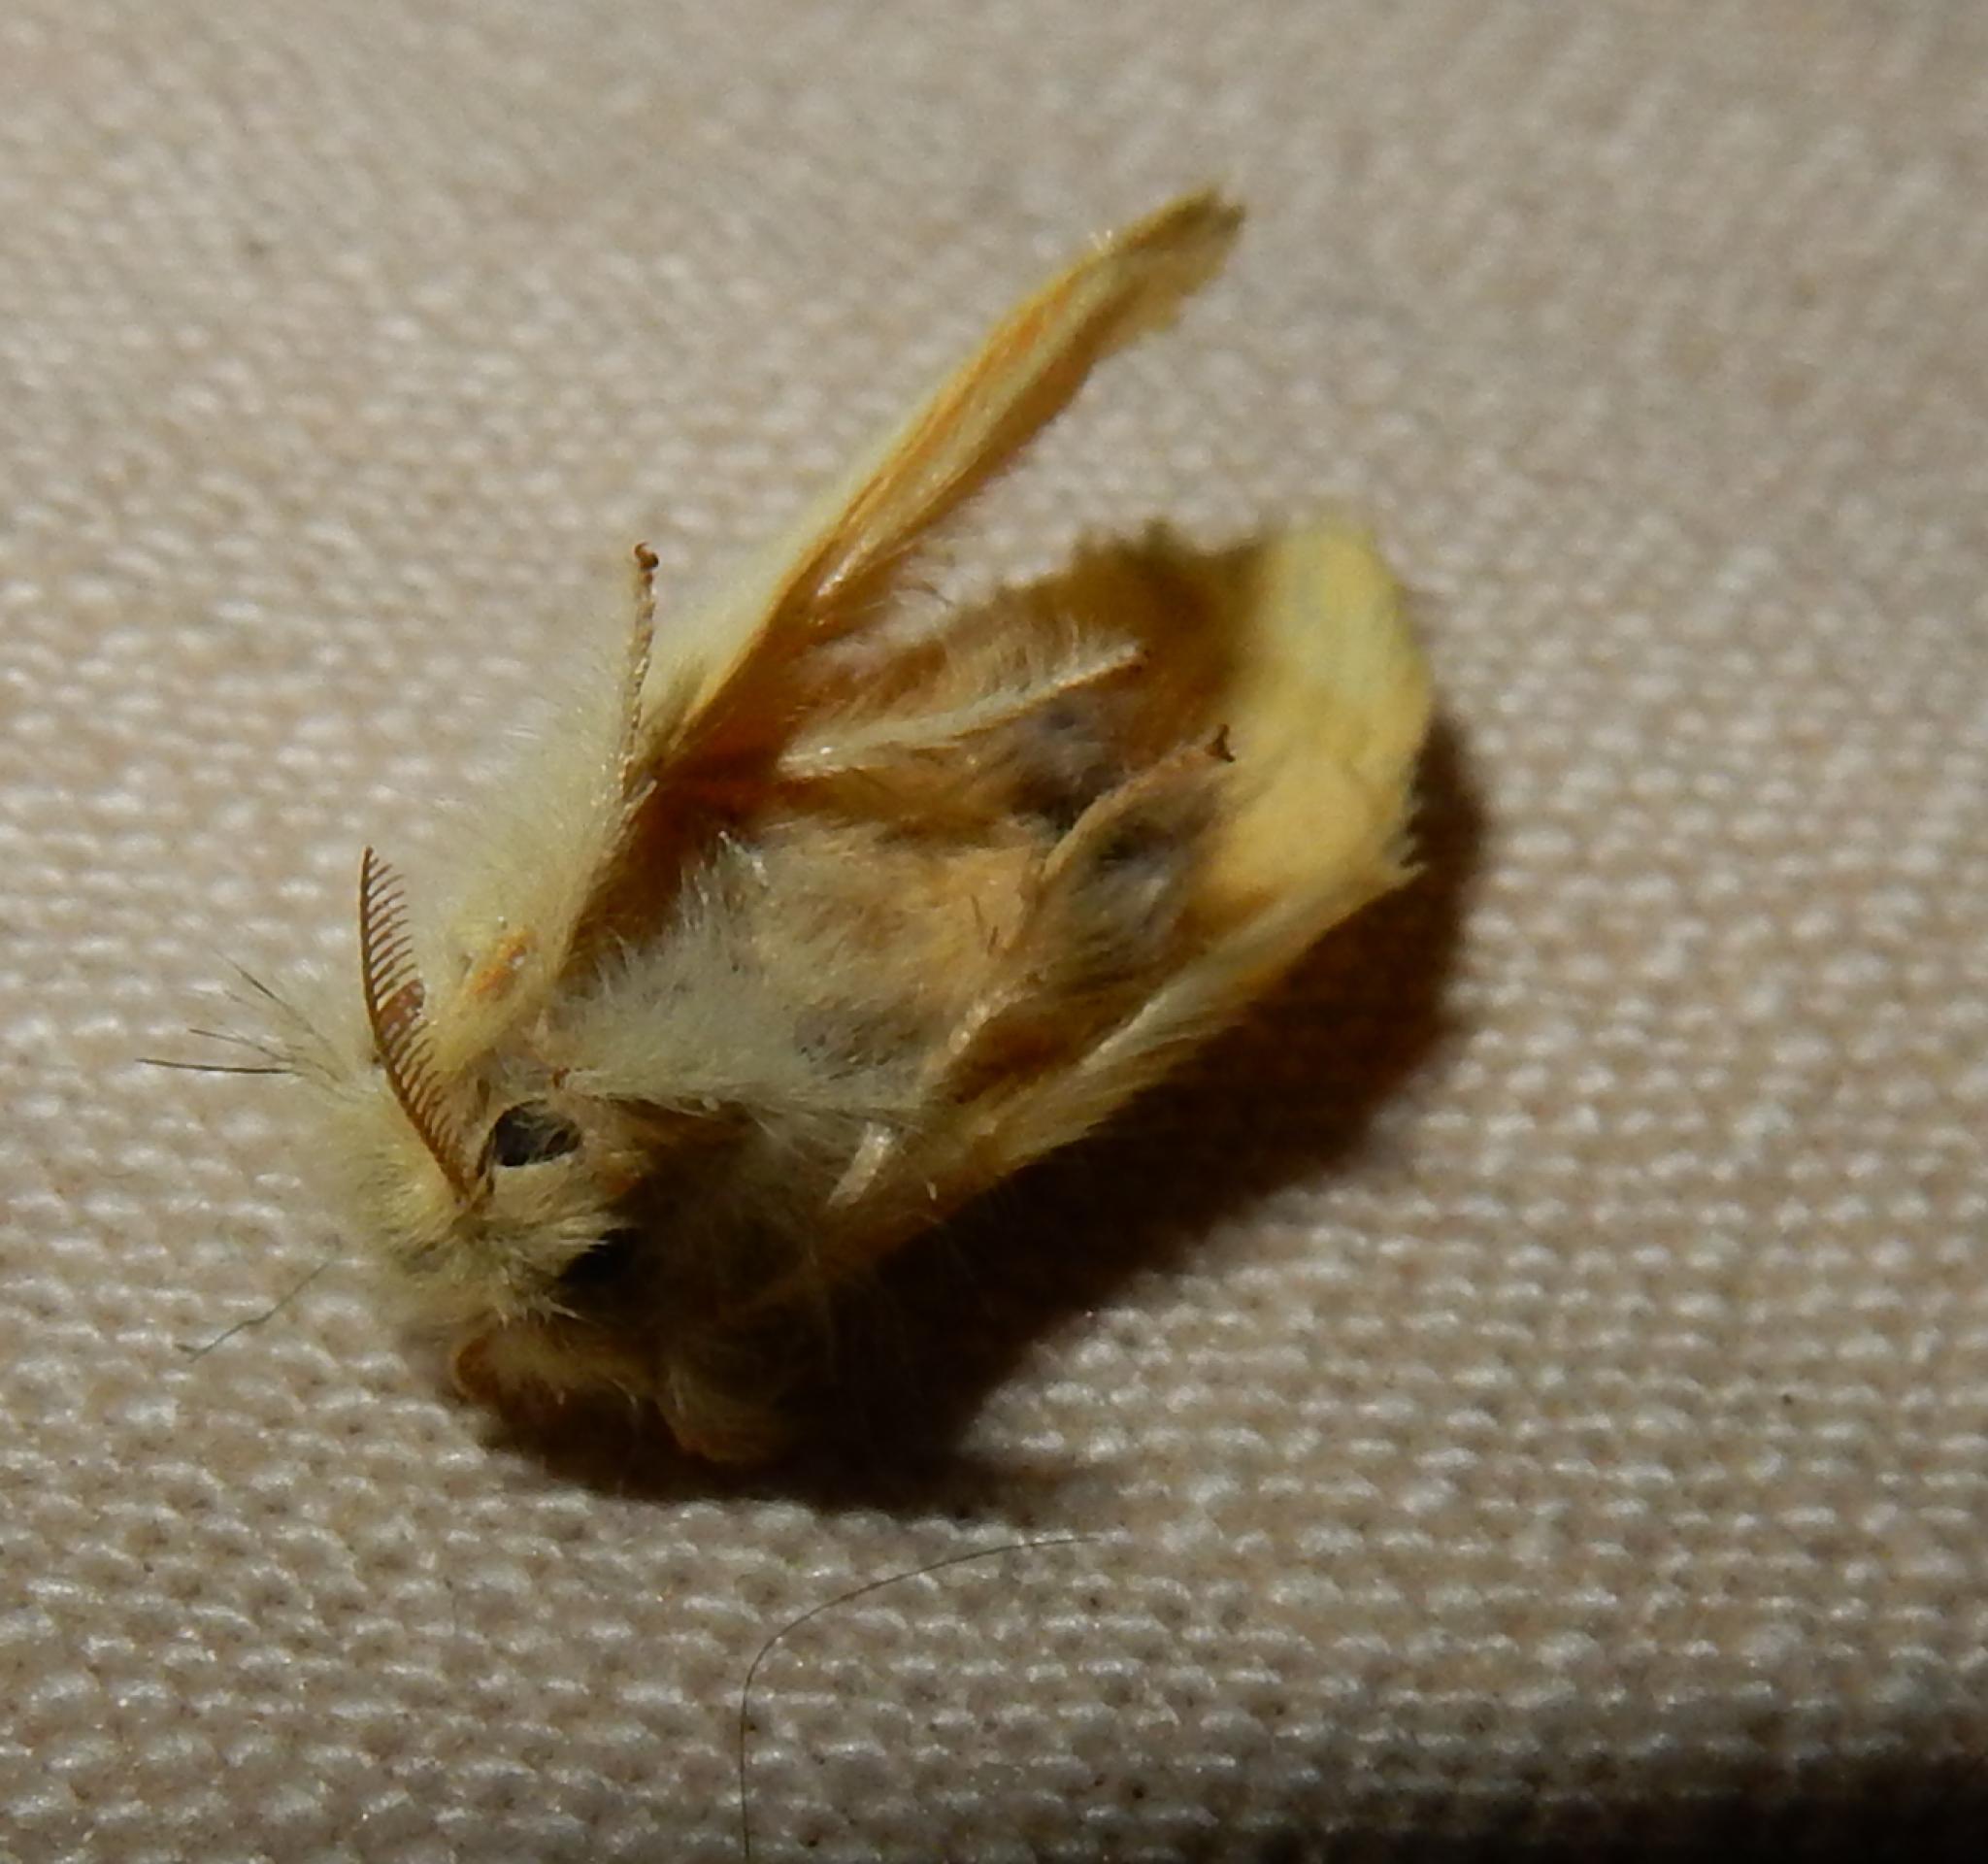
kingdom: Animalia
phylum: Arthropoda
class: Insecta
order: Lepidoptera
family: Erebidae
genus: Euproctis
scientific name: Euproctis bicolor
